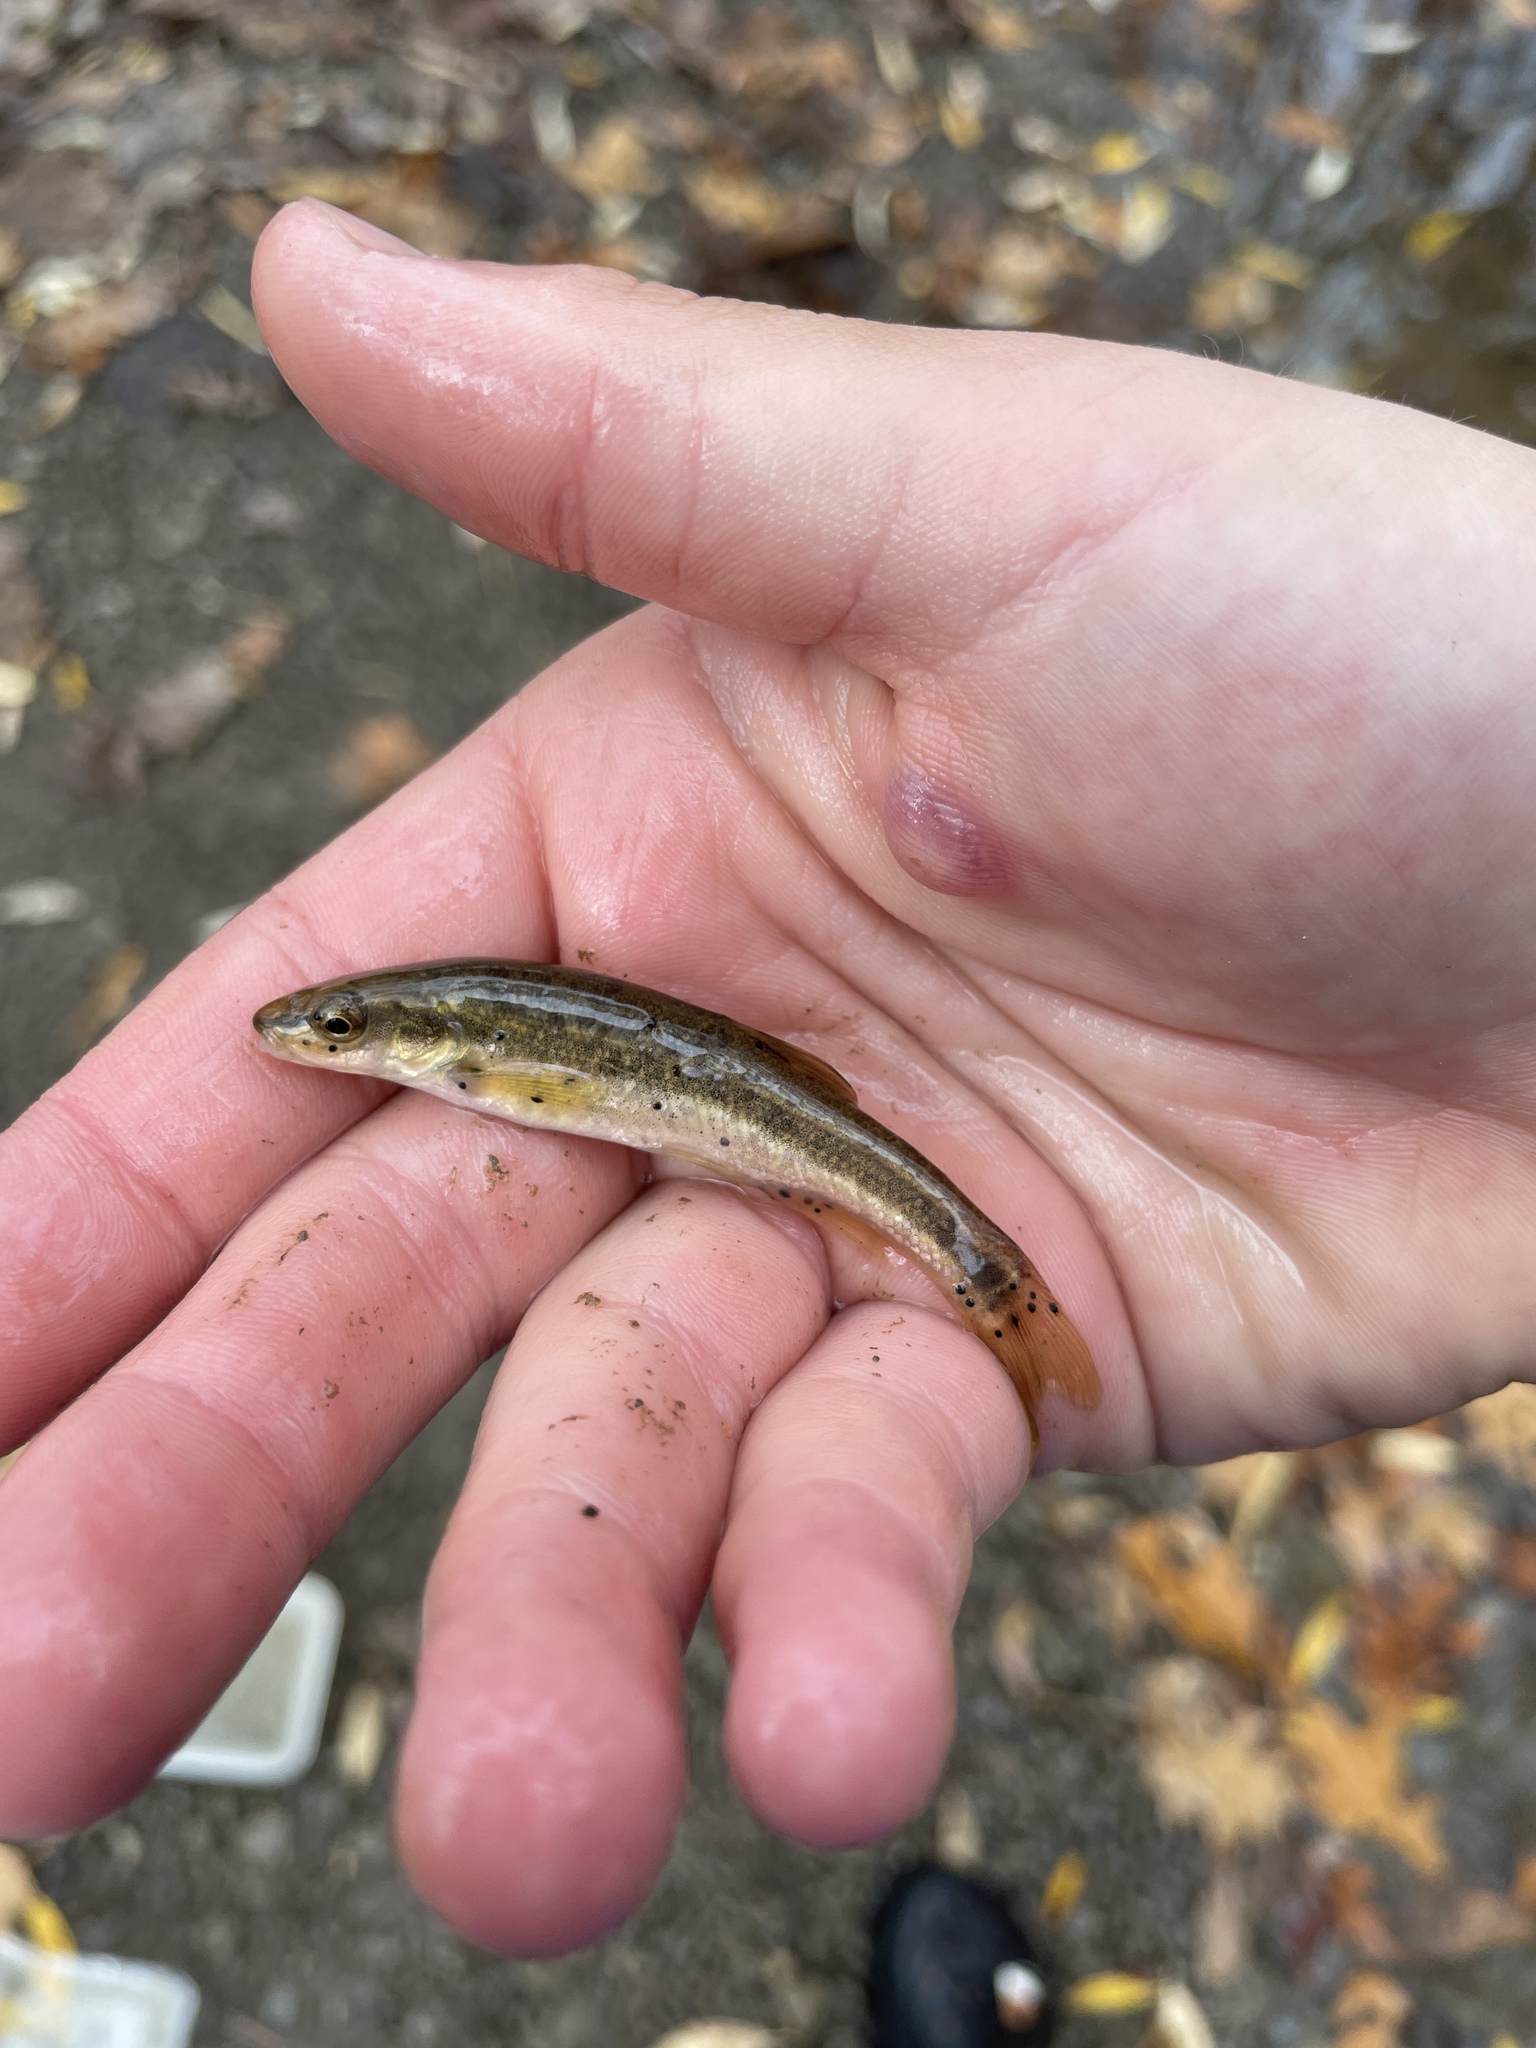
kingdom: Animalia
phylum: Chordata
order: Cypriniformes
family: Cyprinidae
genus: Rhinichthys
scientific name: Rhinichthys obtusus
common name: Western blacknose dace
